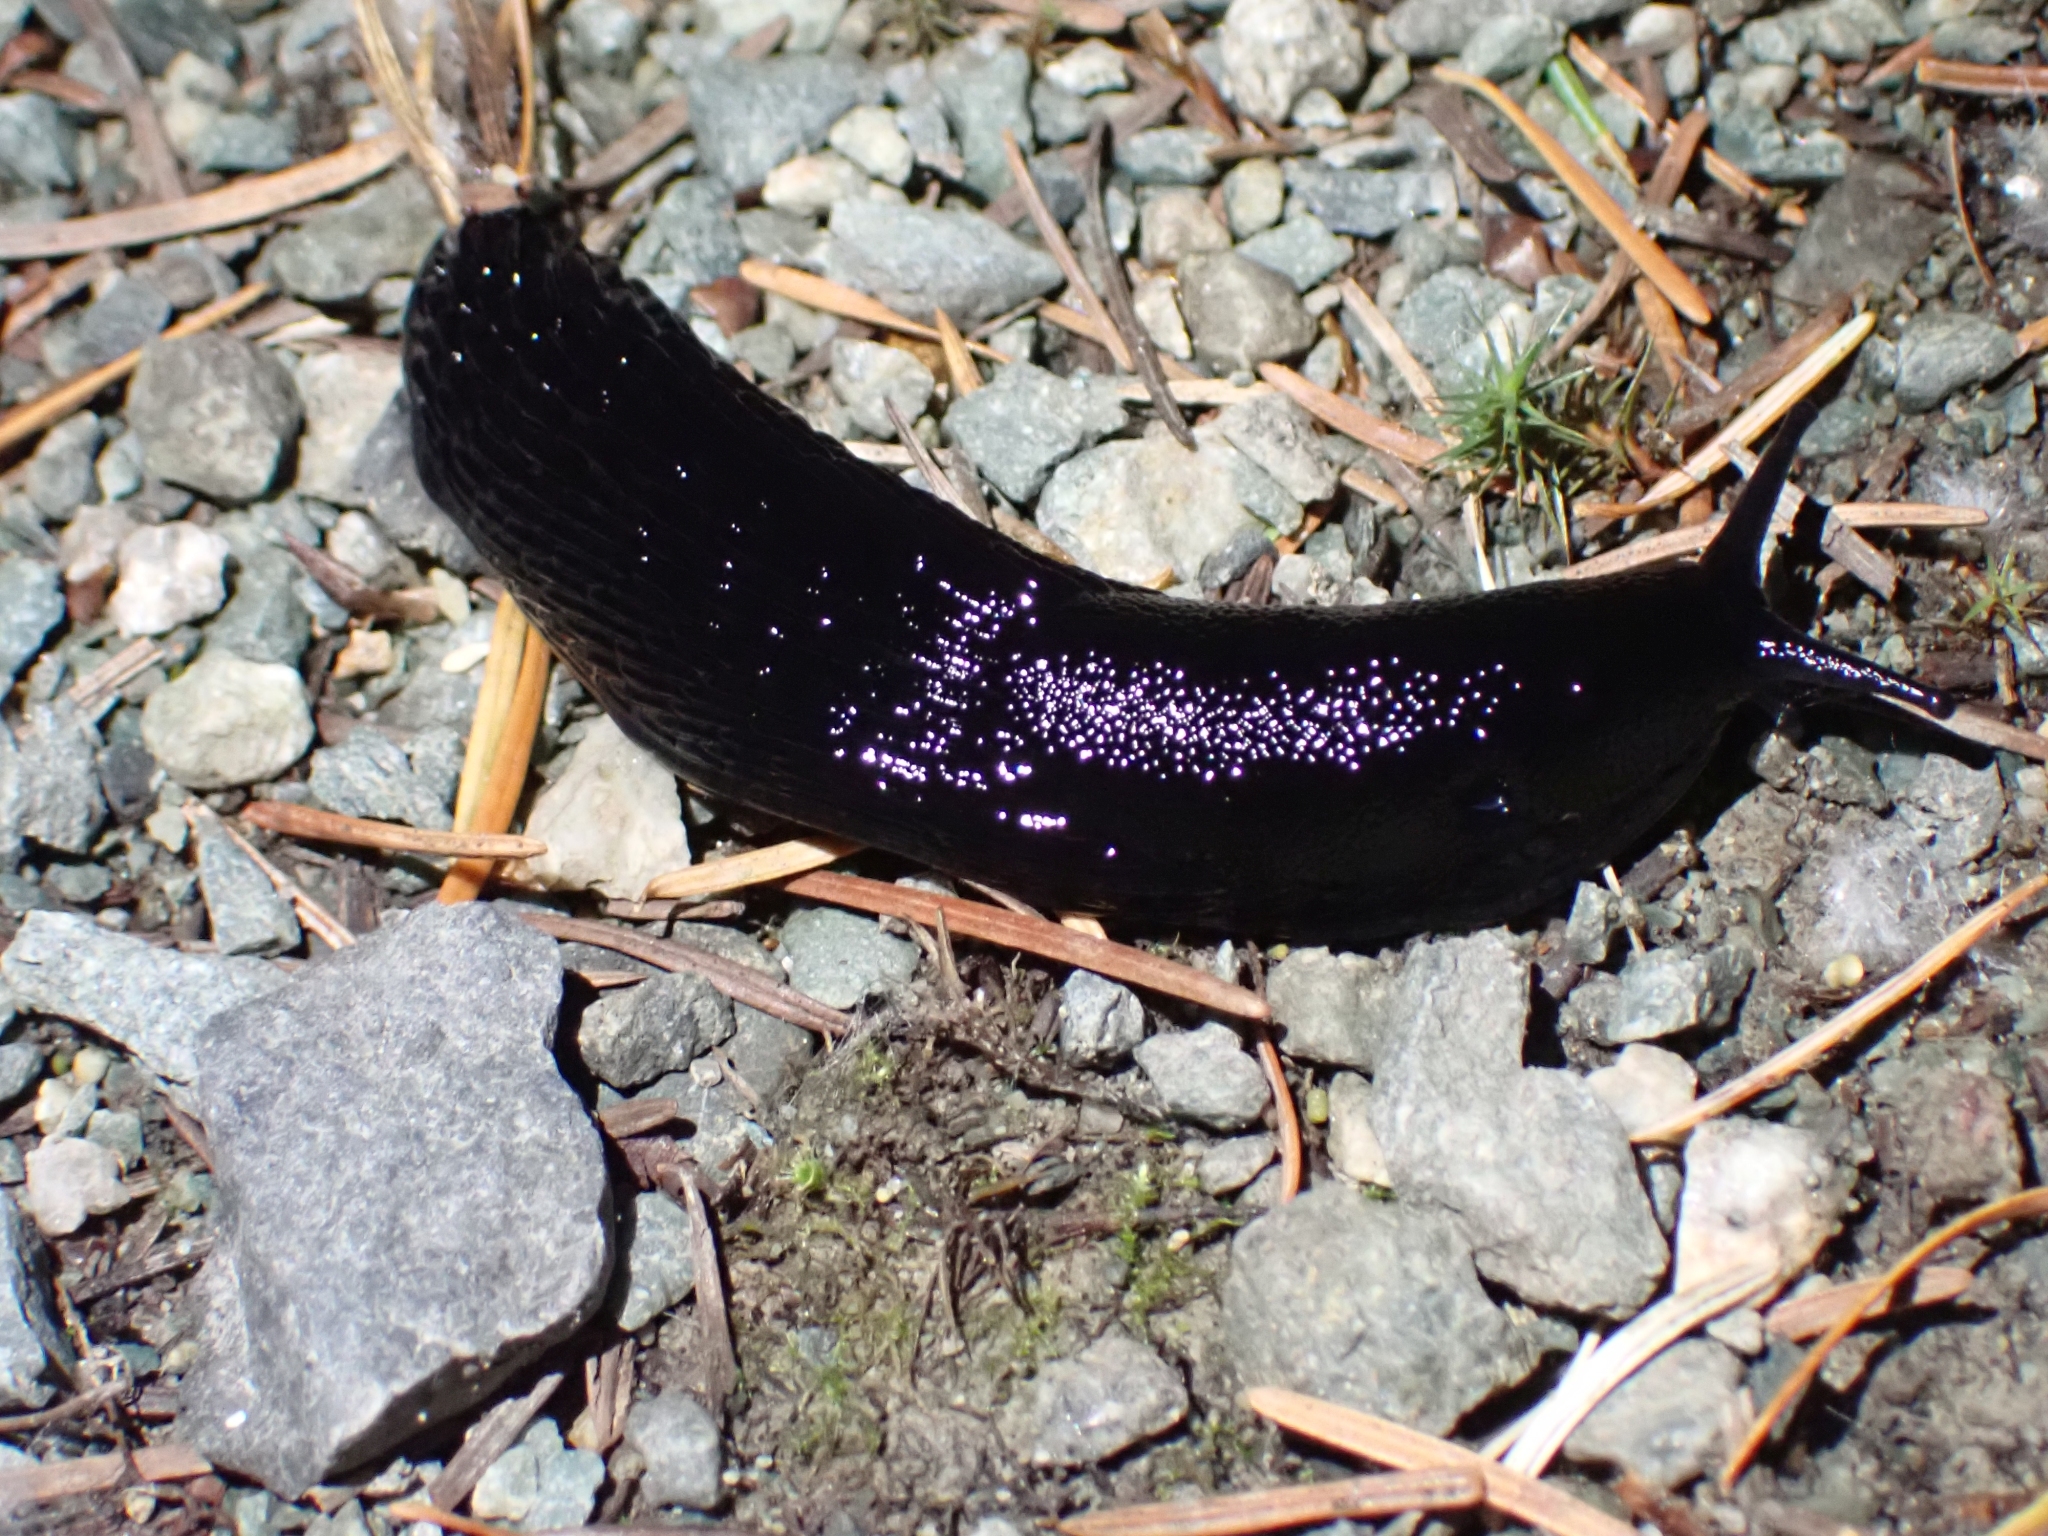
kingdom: Animalia
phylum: Mollusca
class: Gastropoda
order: Stylommatophora
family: Arionidae
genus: Arion
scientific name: Arion
